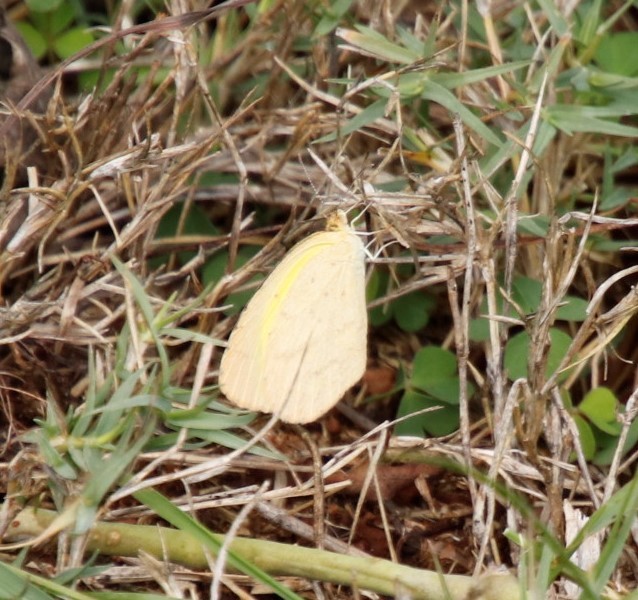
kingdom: Animalia
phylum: Arthropoda
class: Insecta
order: Lepidoptera
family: Pieridae
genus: Eurema
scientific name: Eurema brigitta
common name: Small grass yellow
